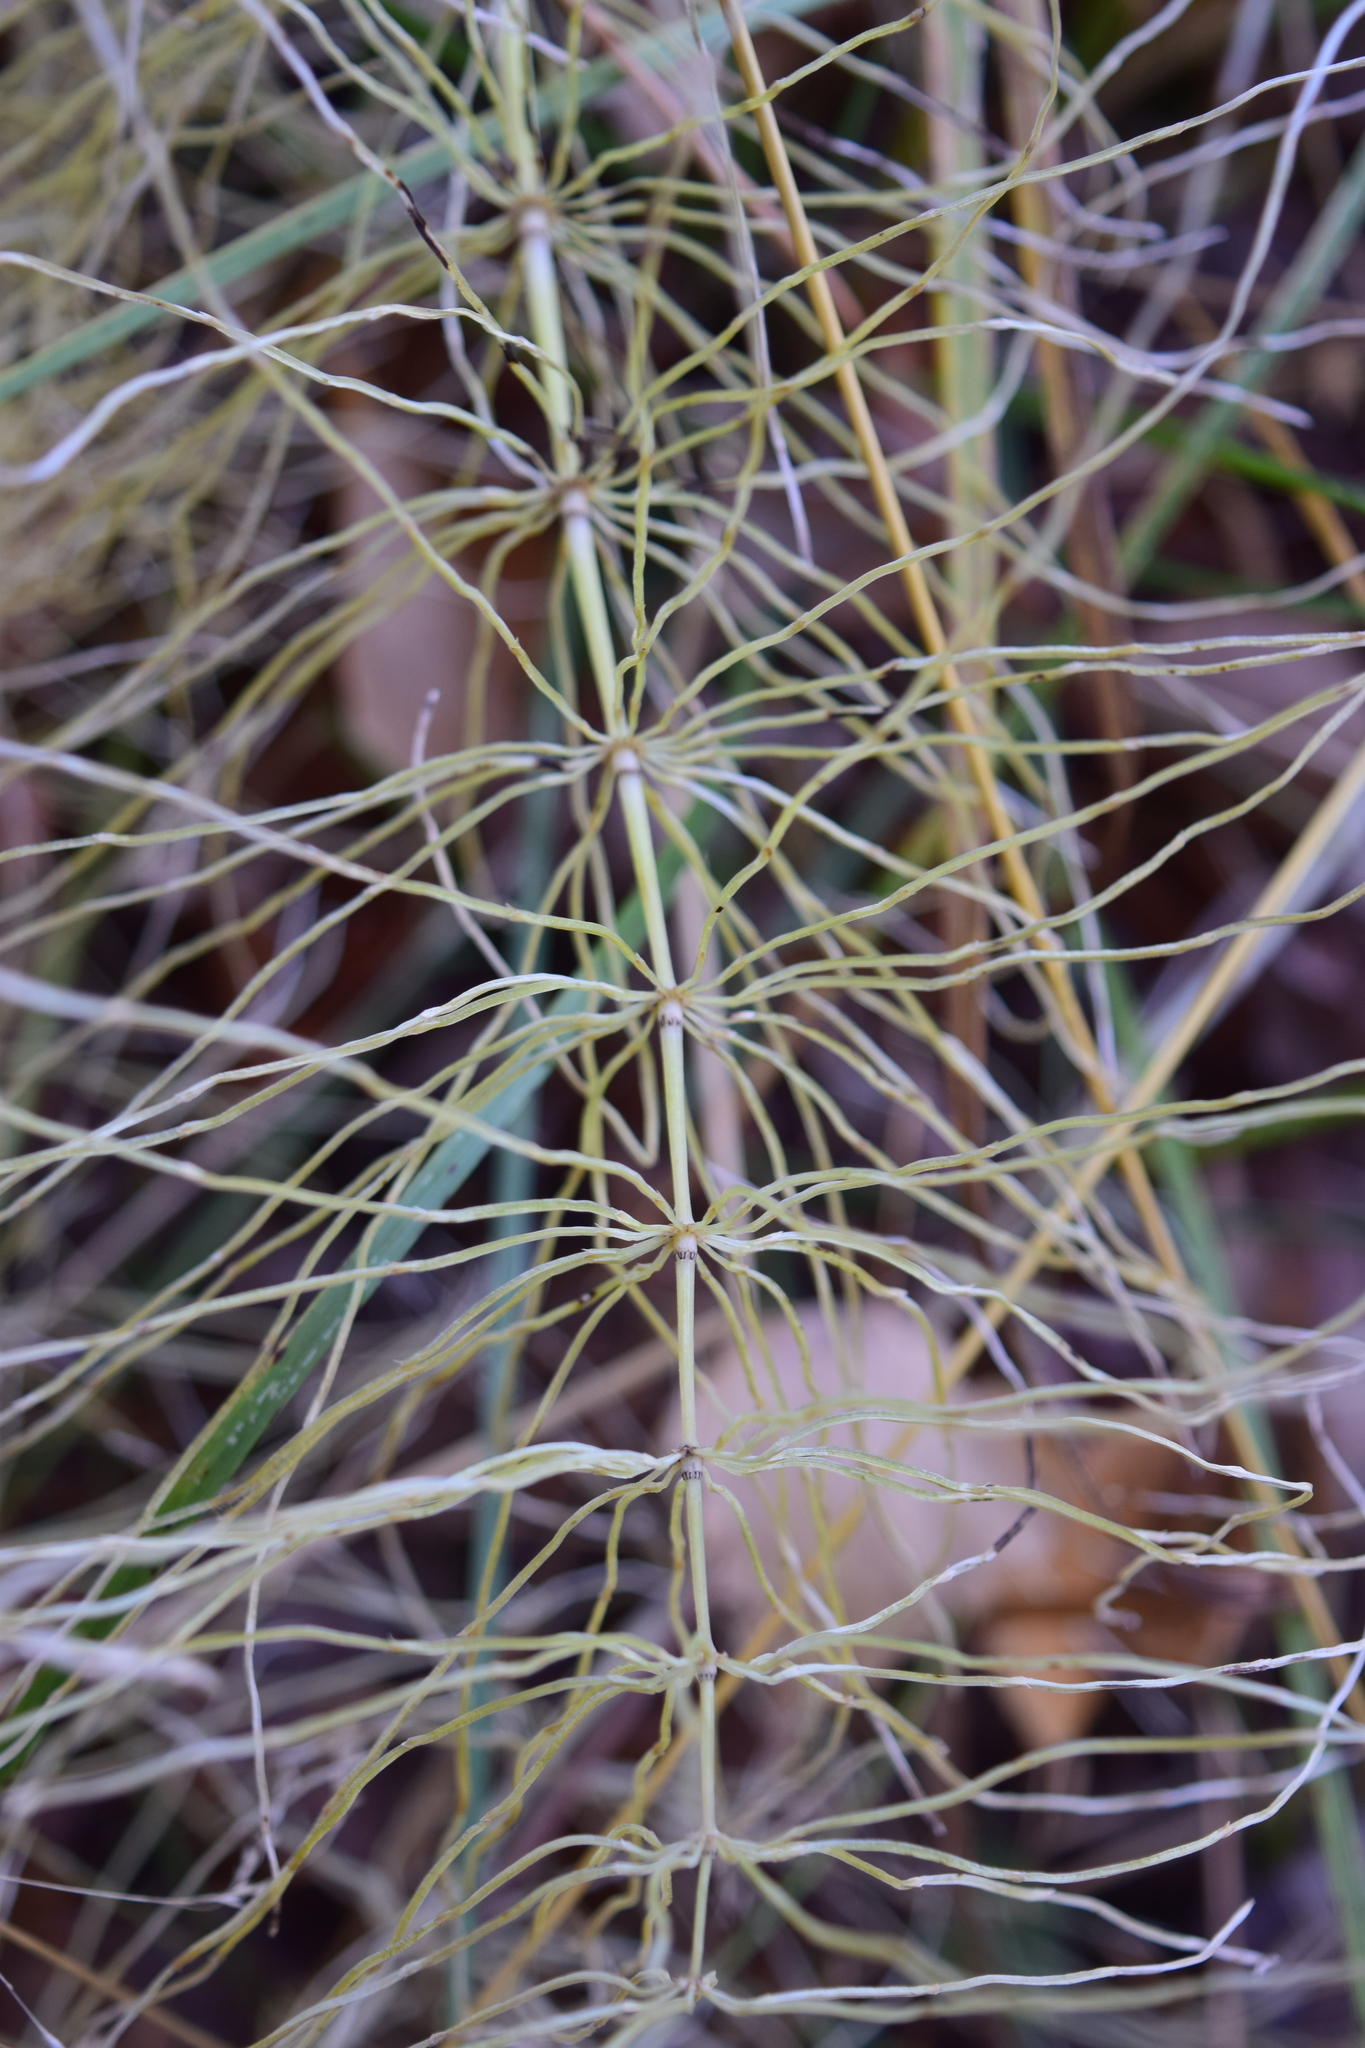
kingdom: Plantae
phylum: Tracheophyta
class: Polypodiopsida
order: Equisetales
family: Equisetaceae
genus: Equisetum
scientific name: Equisetum pratense
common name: Meadow horsetail
